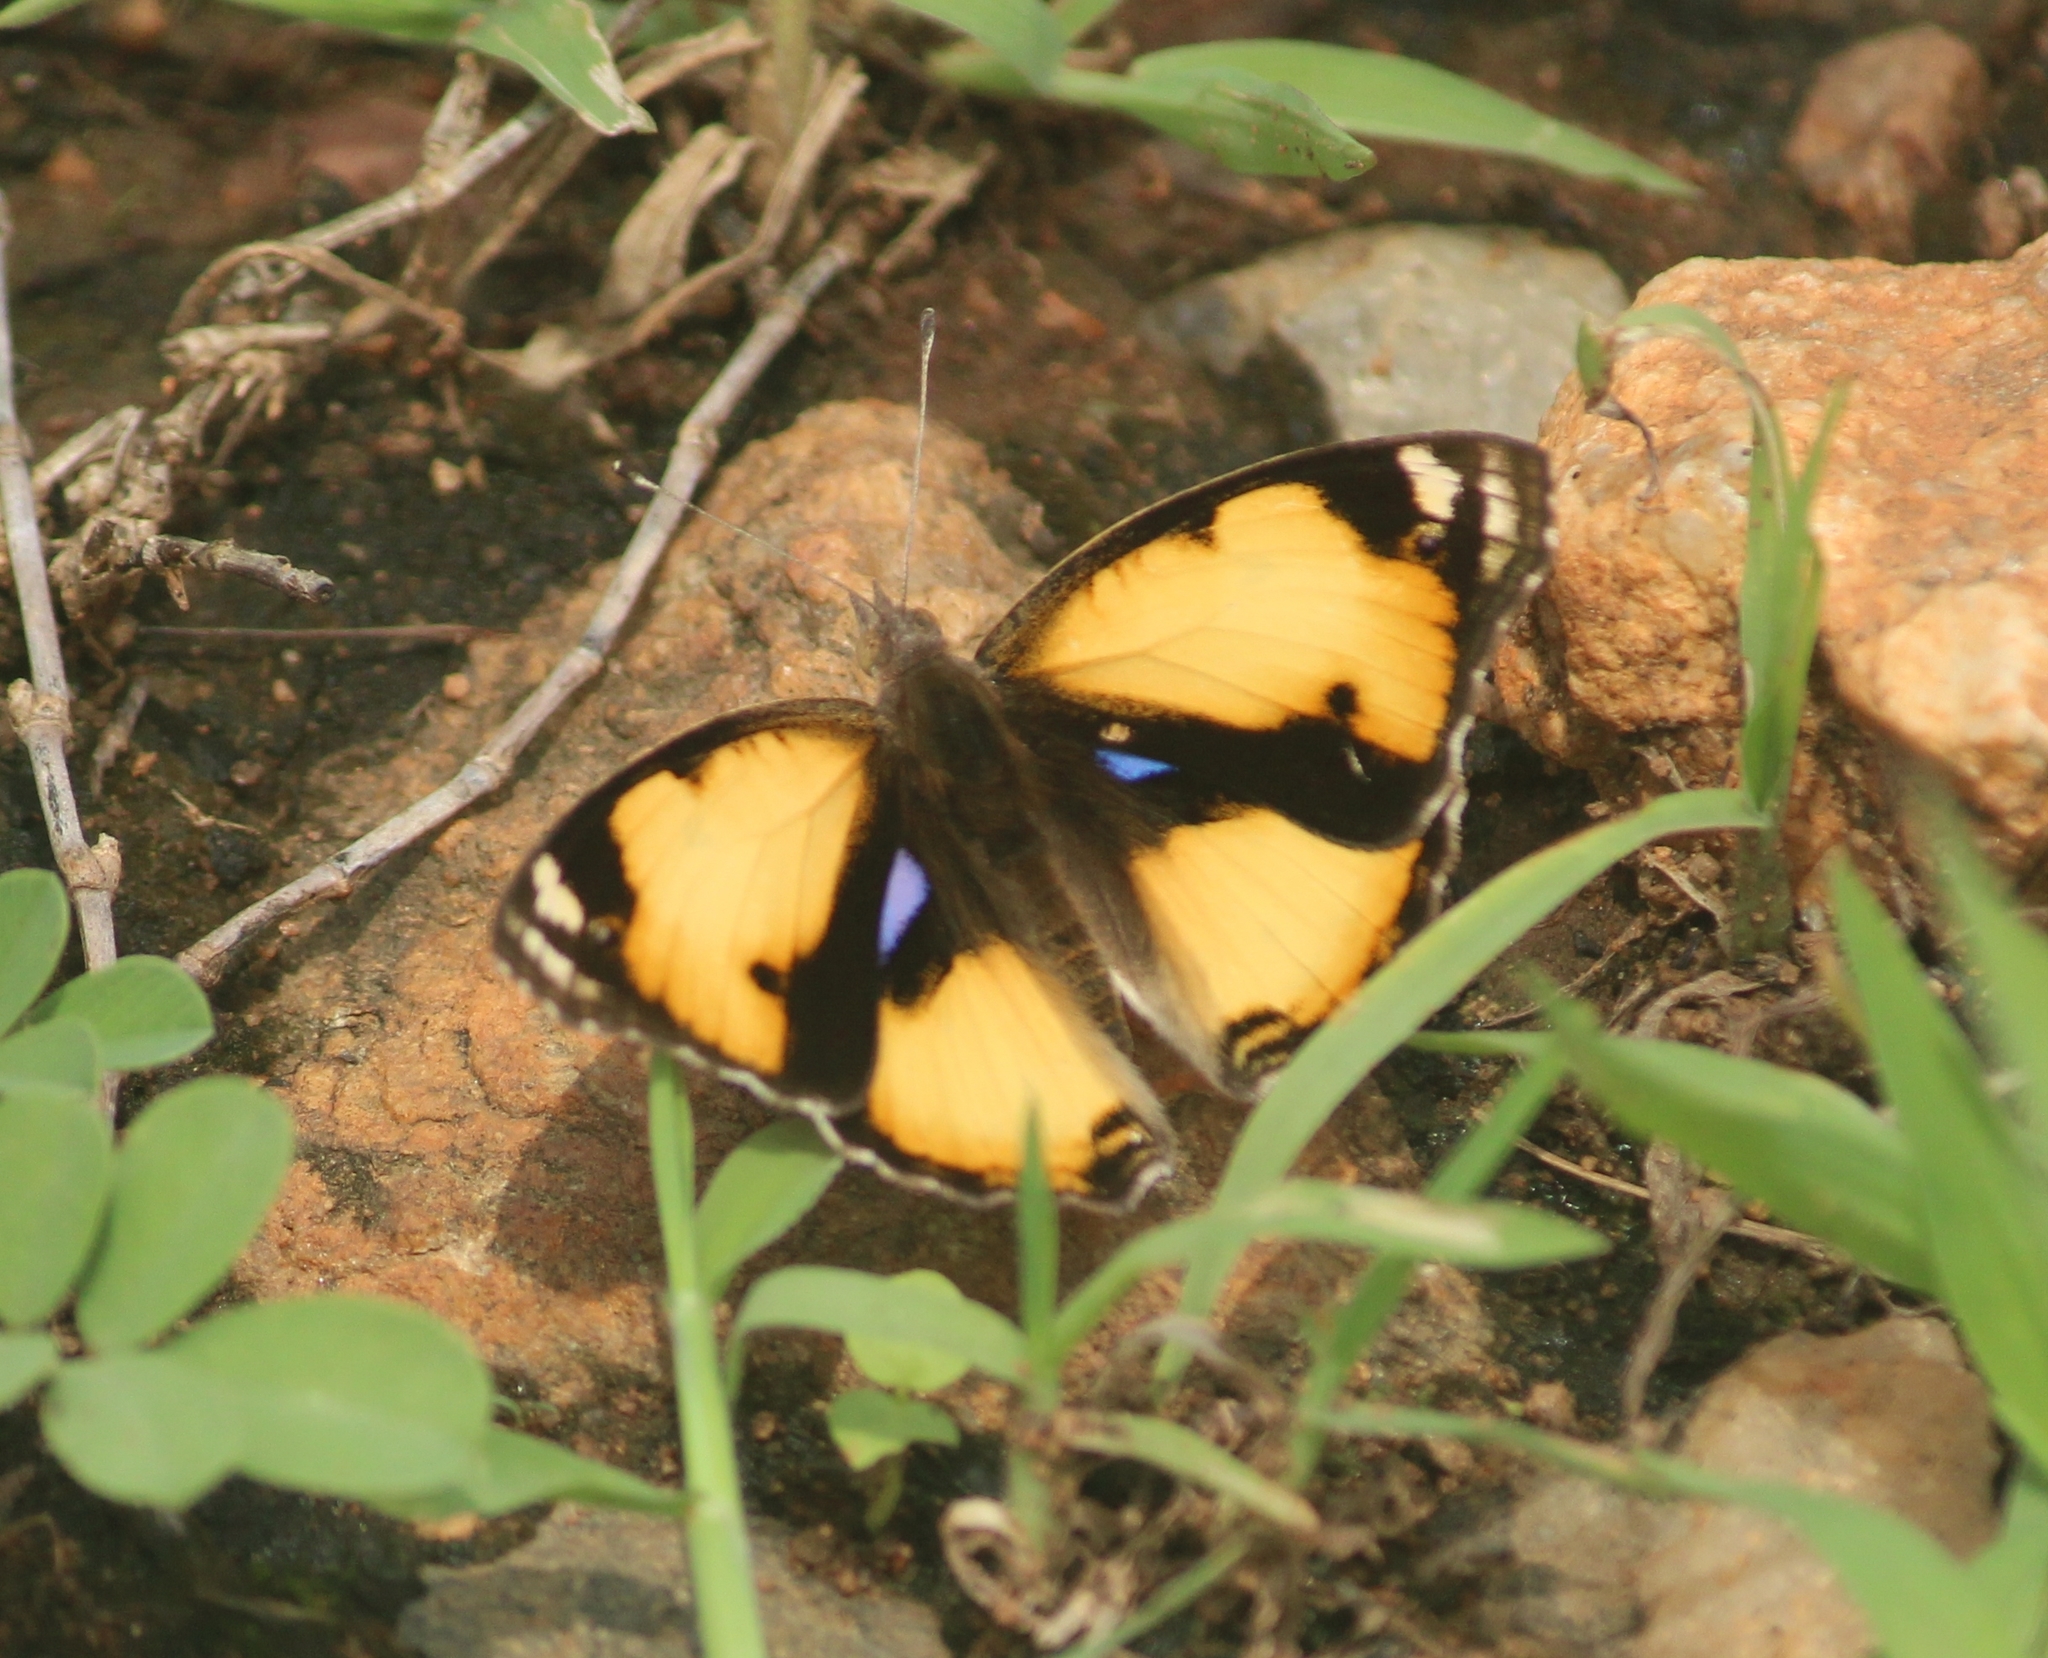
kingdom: Animalia
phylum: Arthropoda
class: Insecta
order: Lepidoptera
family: Nymphalidae
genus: Junonia
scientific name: Junonia hierta
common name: Yellow pansy
